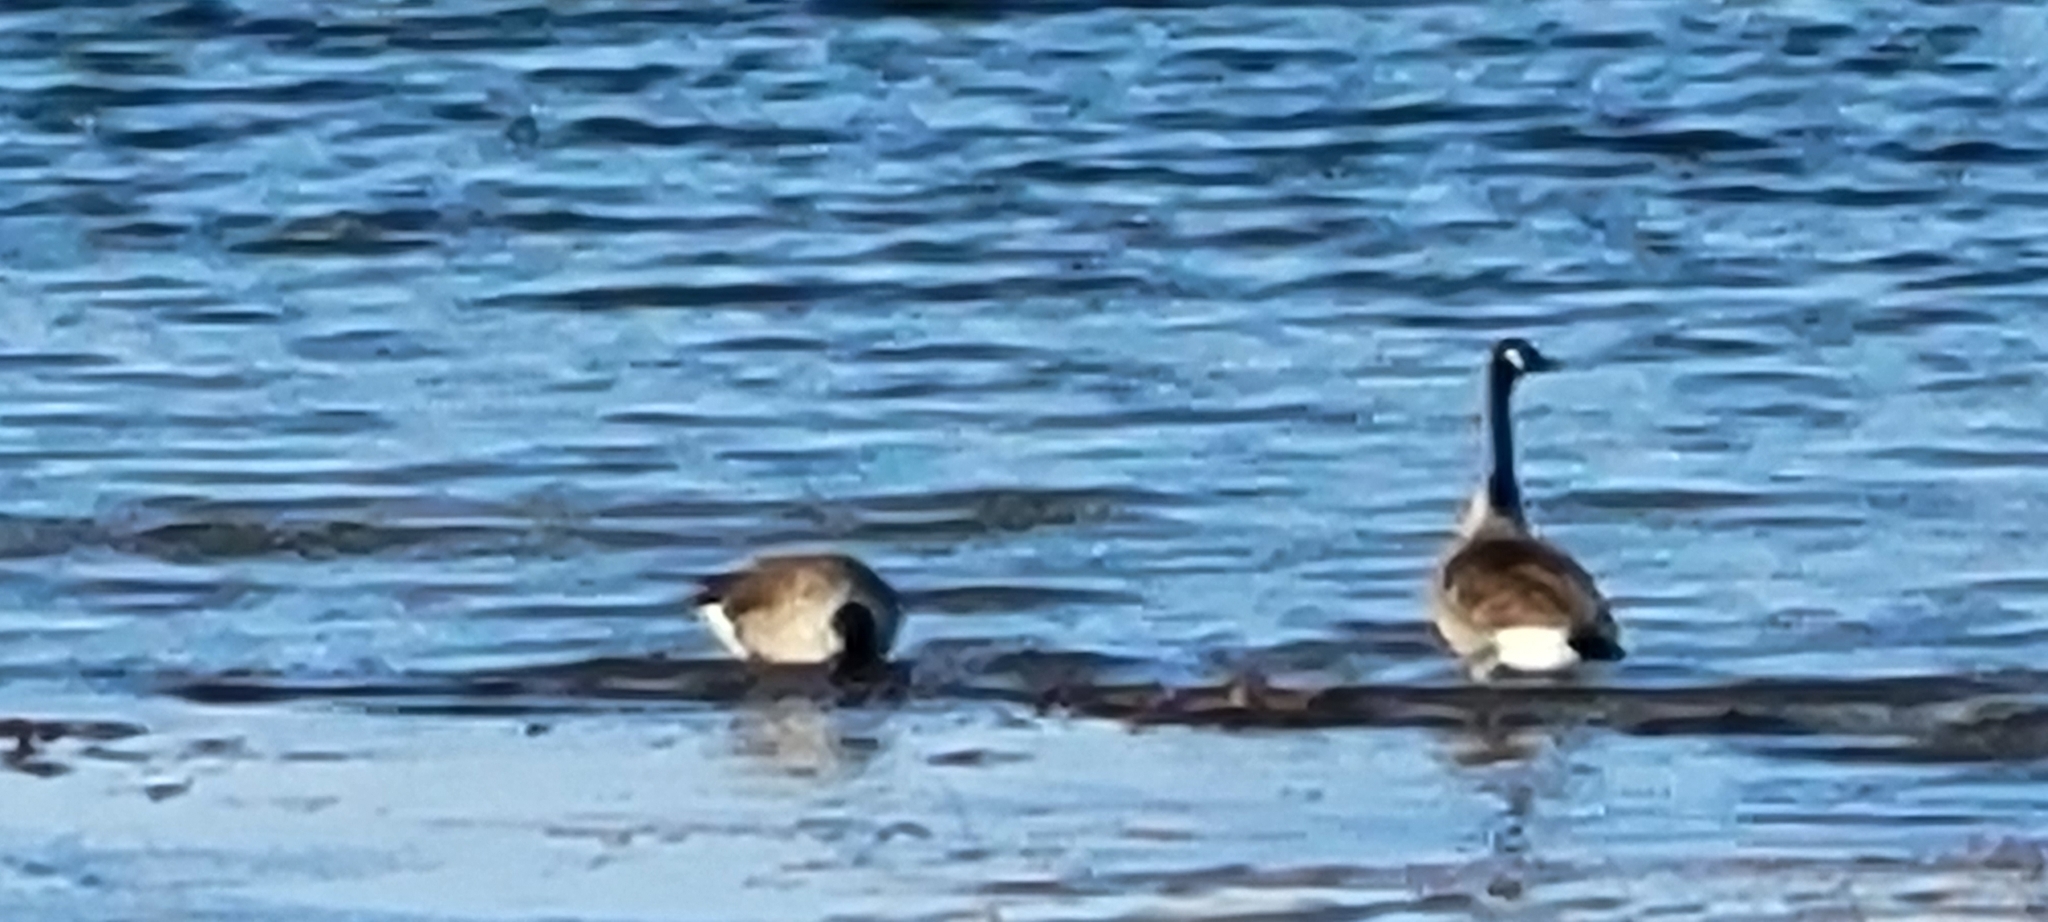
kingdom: Animalia
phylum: Chordata
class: Aves
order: Anseriformes
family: Anatidae
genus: Branta
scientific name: Branta canadensis
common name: Canada goose
